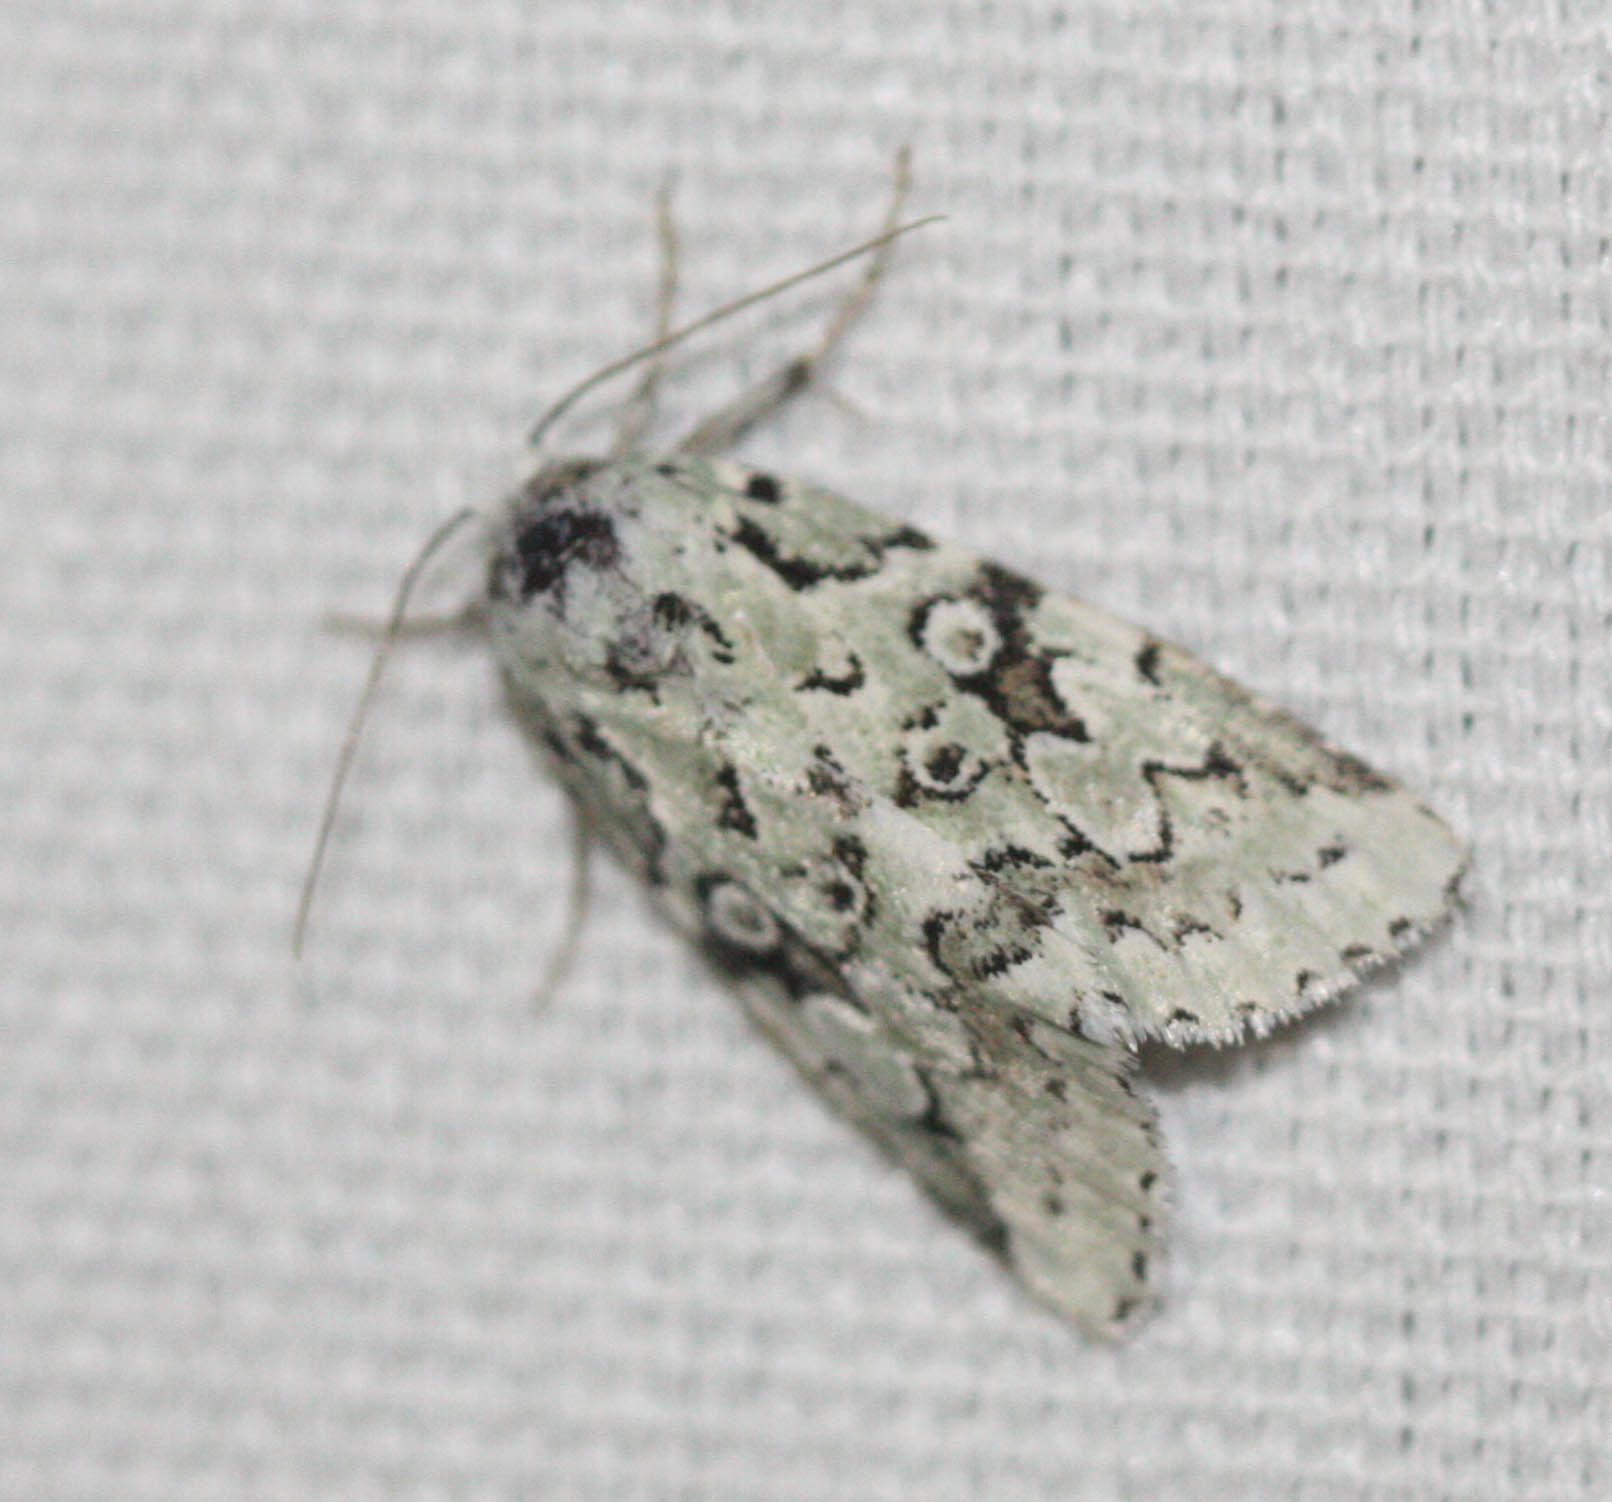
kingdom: Animalia
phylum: Arthropoda
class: Insecta
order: Lepidoptera
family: Noctuidae
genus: Bryolymnia
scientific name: Bryolymnia viridata
